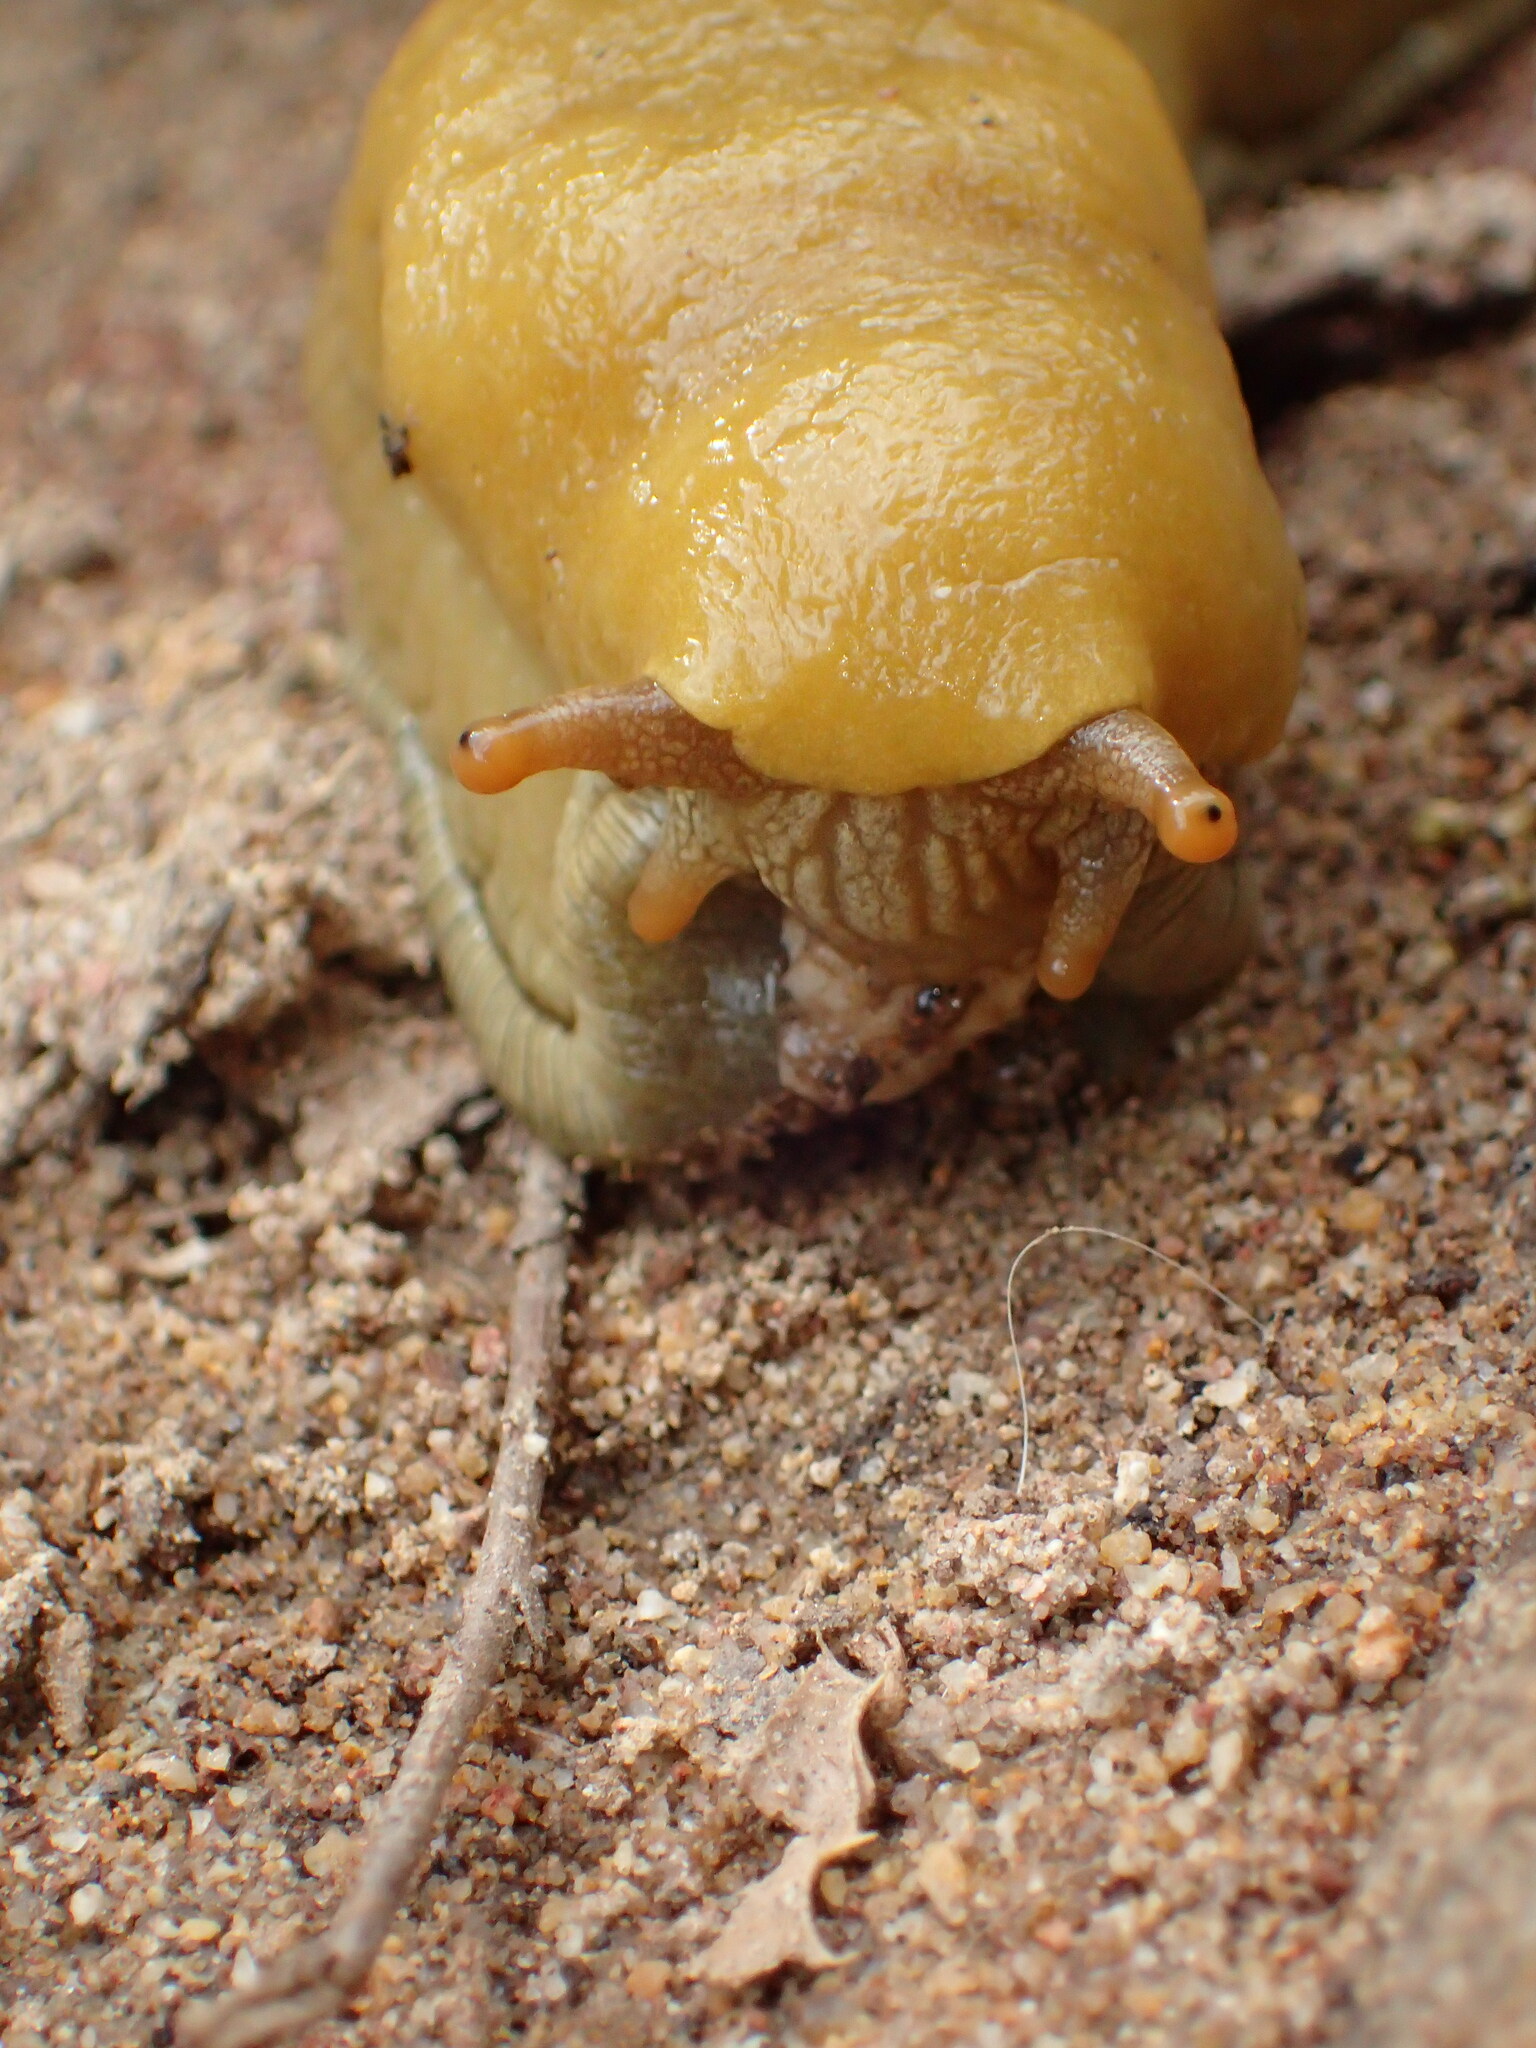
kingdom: Animalia
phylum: Mollusca
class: Gastropoda
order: Stylommatophora
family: Ariolimacidae
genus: Ariolimax
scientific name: Ariolimax stramineus
